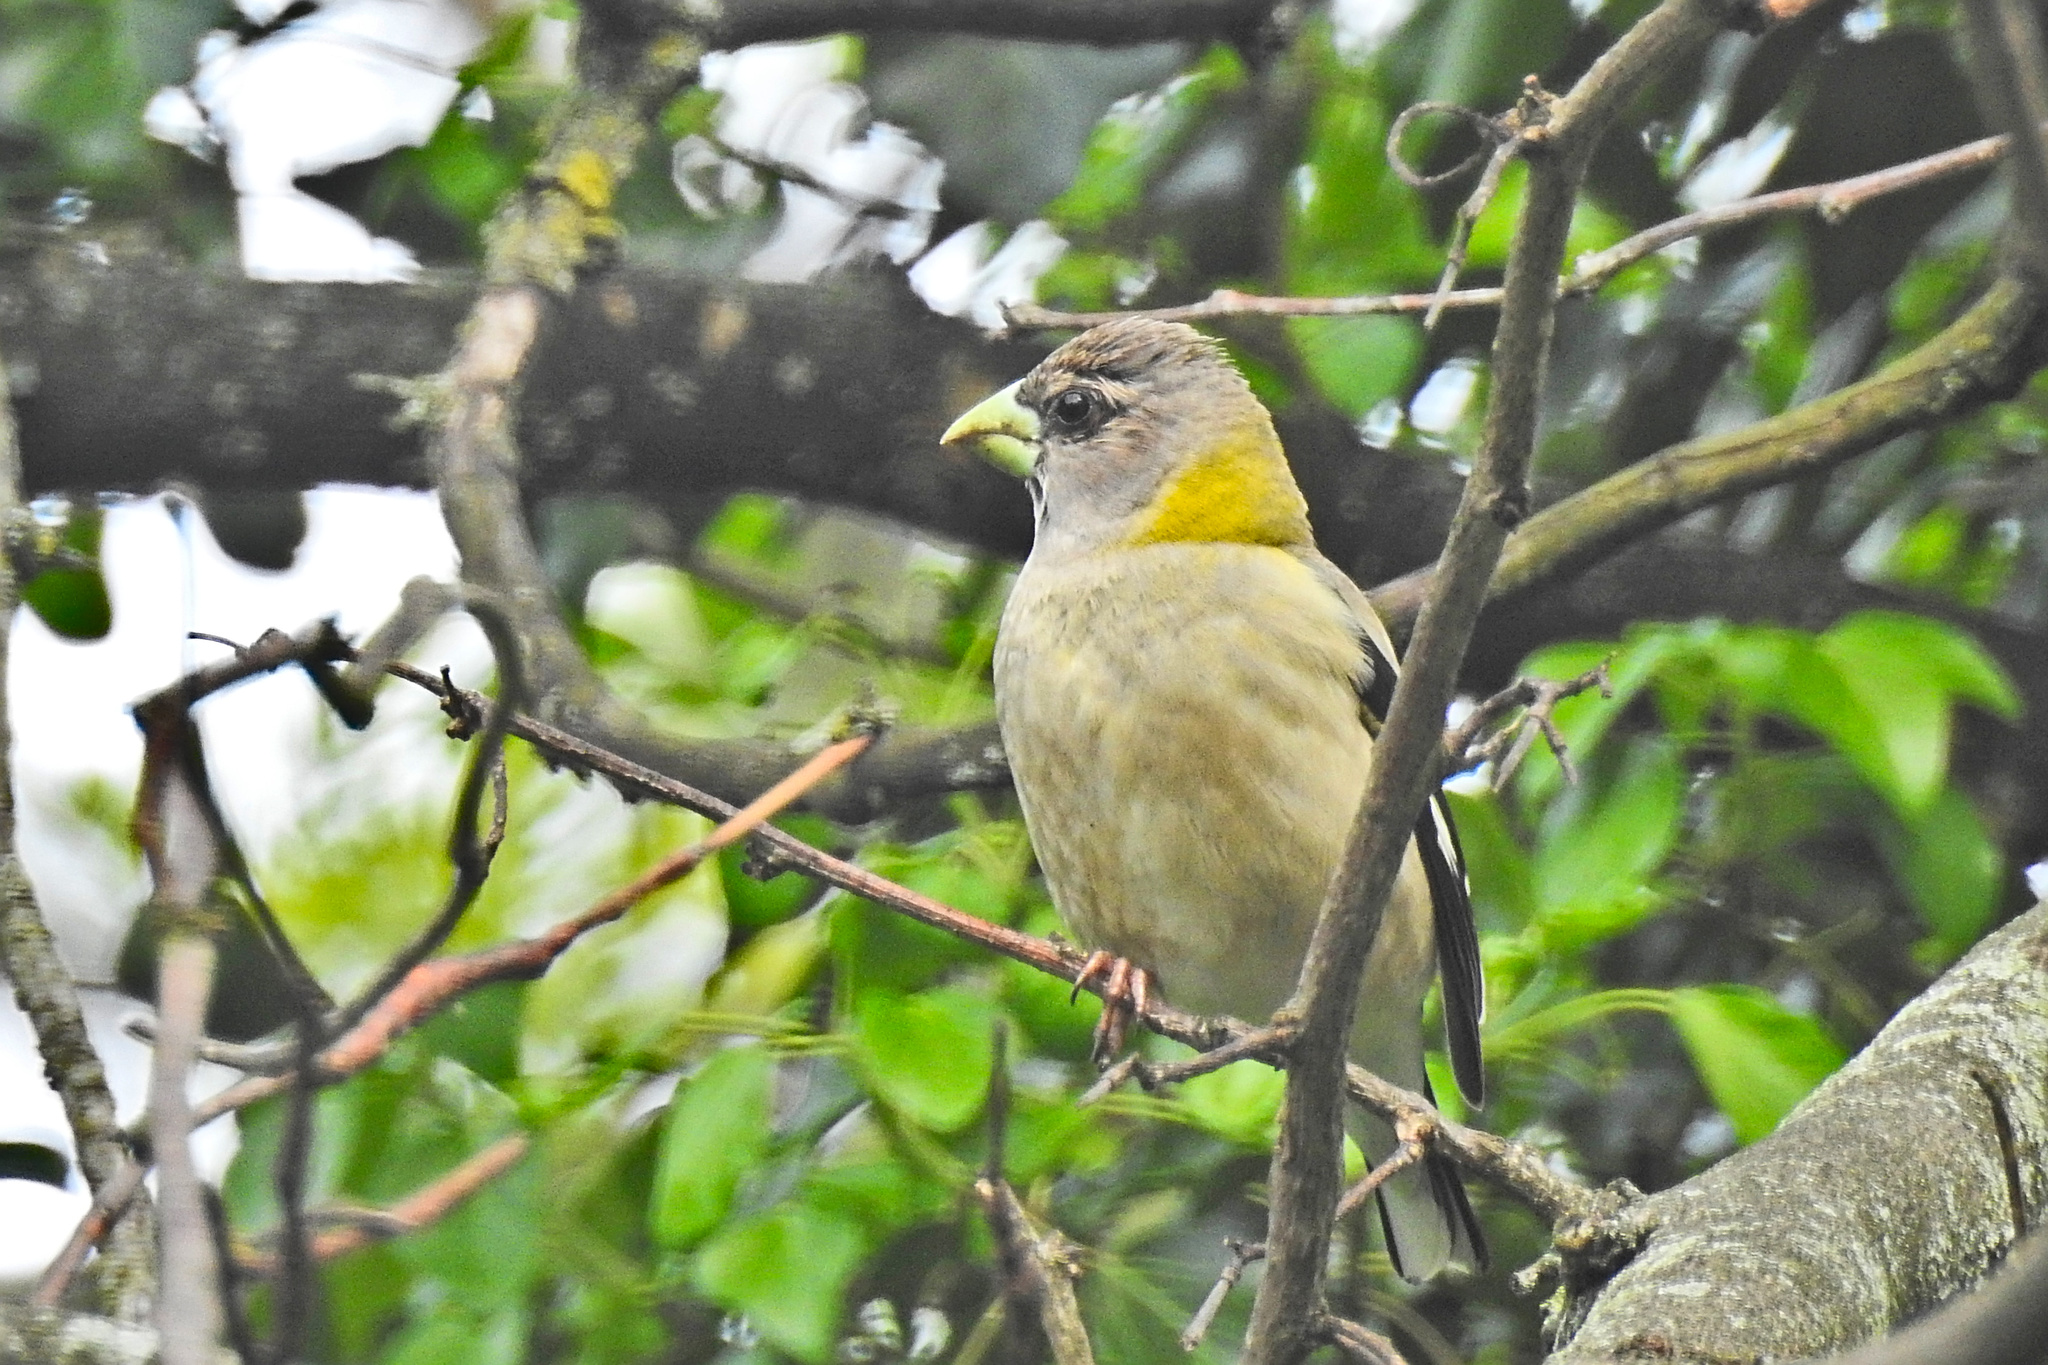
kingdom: Animalia
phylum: Chordata
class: Aves
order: Passeriformes
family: Fringillidae
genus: Hesperiphona
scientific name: Hesperiphona vespertina
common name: Evening grosbeak
